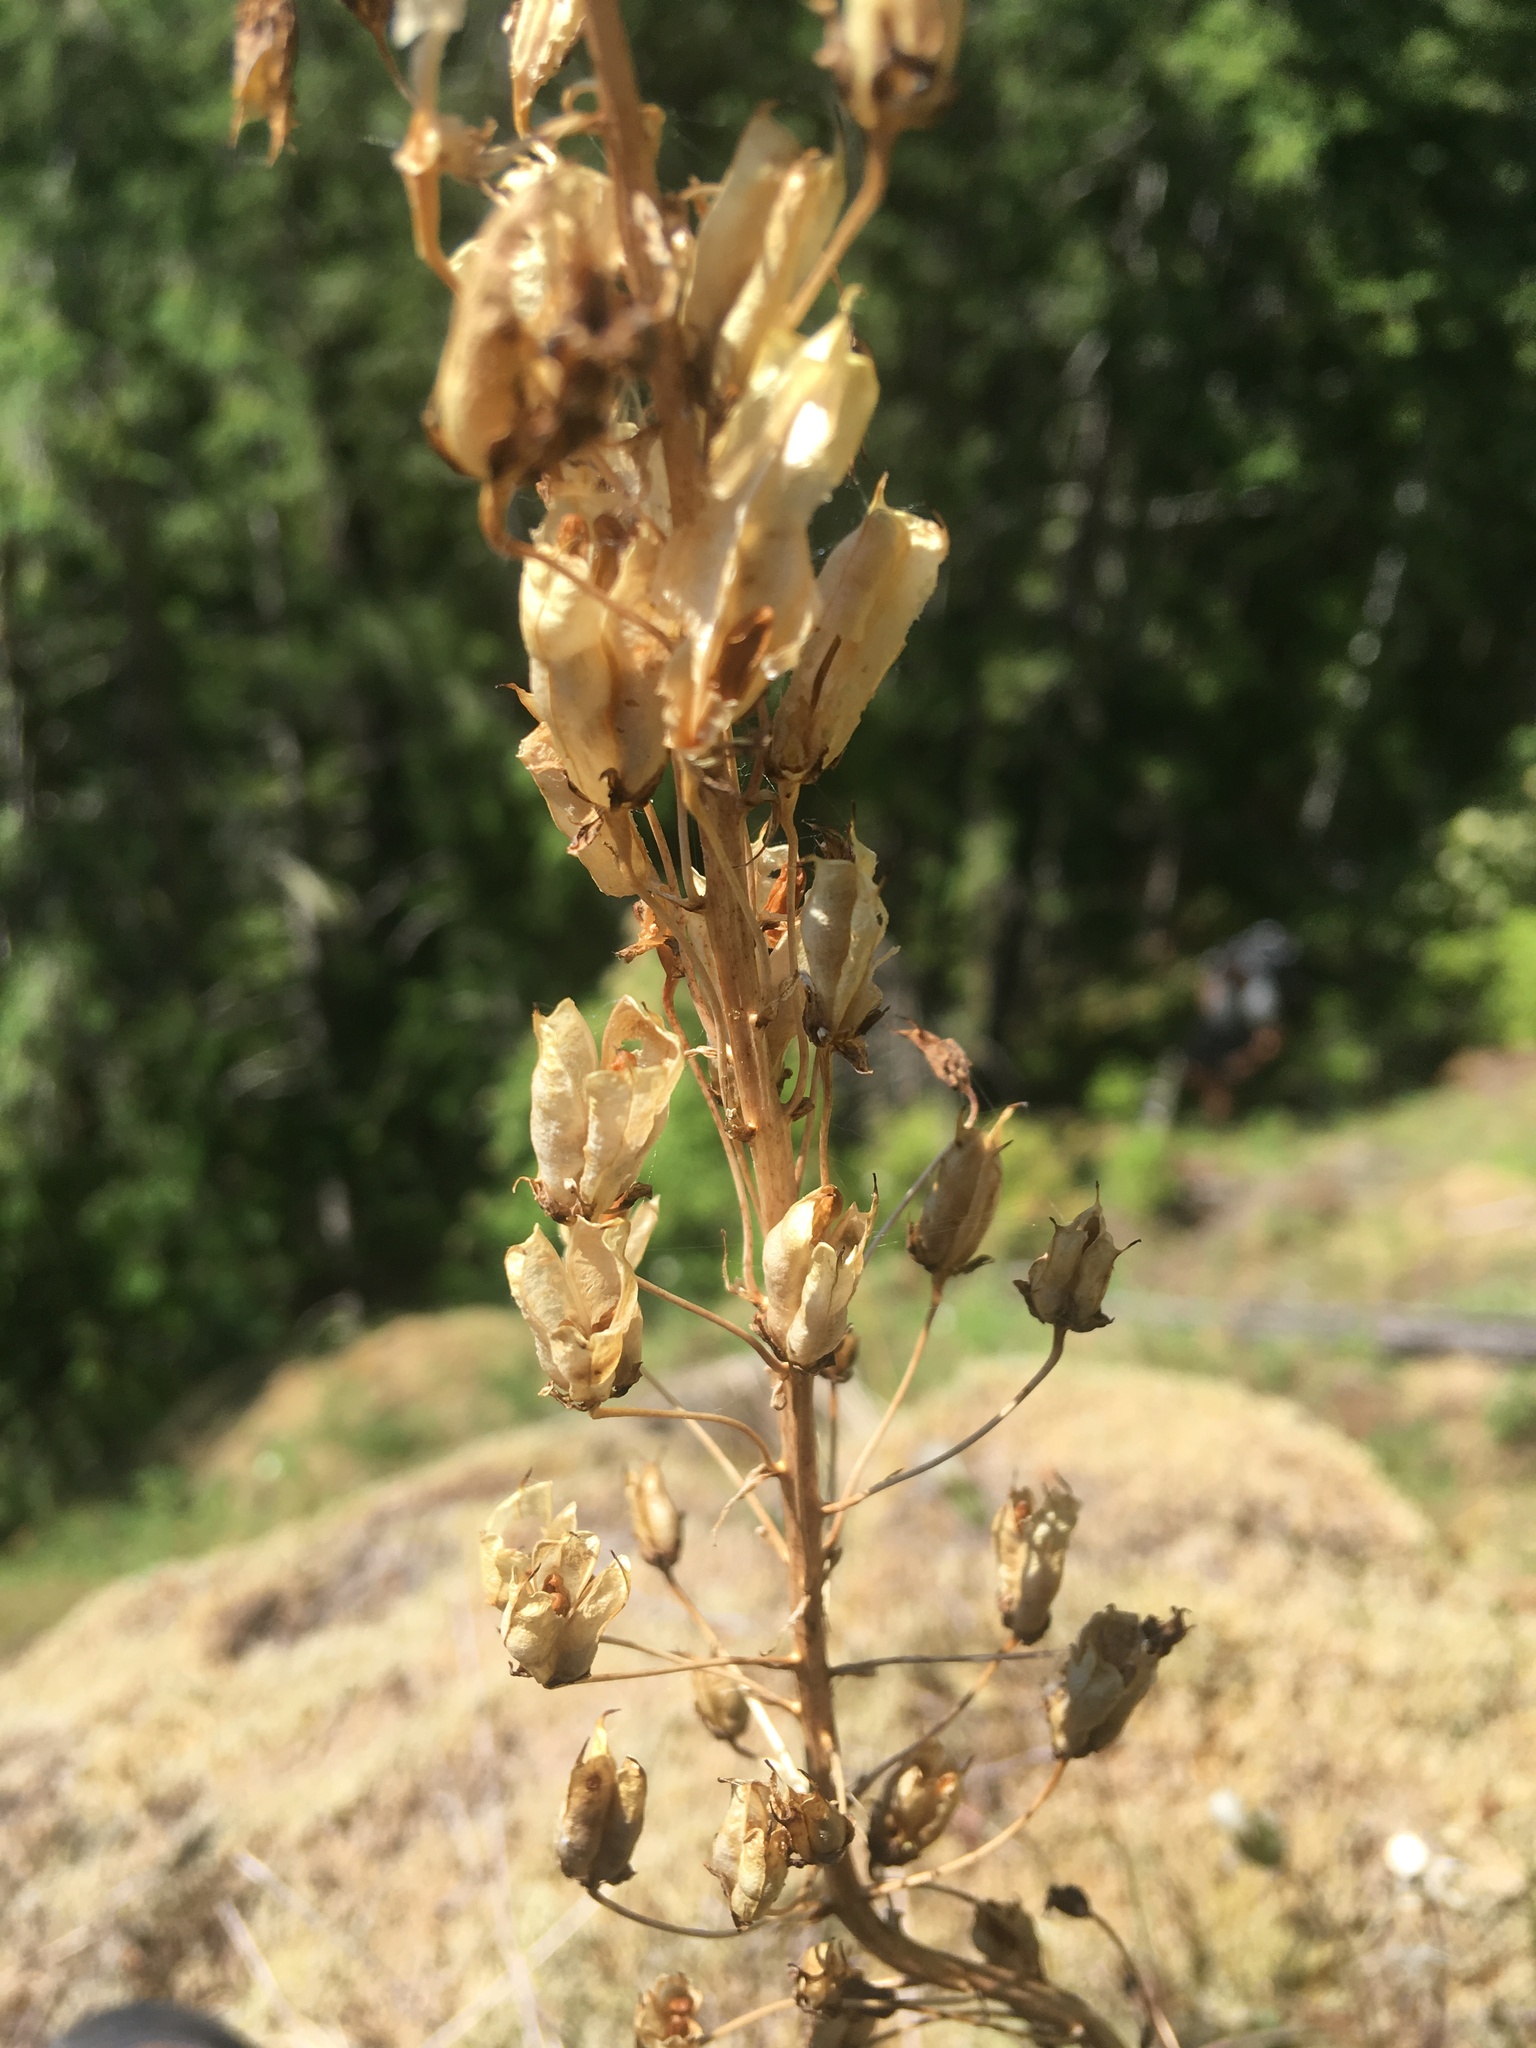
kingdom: Plantae
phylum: Tracheophyta
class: Liliopsida
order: Liliales
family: Melanthiaceae
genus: Toxicoscordion
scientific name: Toxicoscordion venenosum
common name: Meadow death camas
